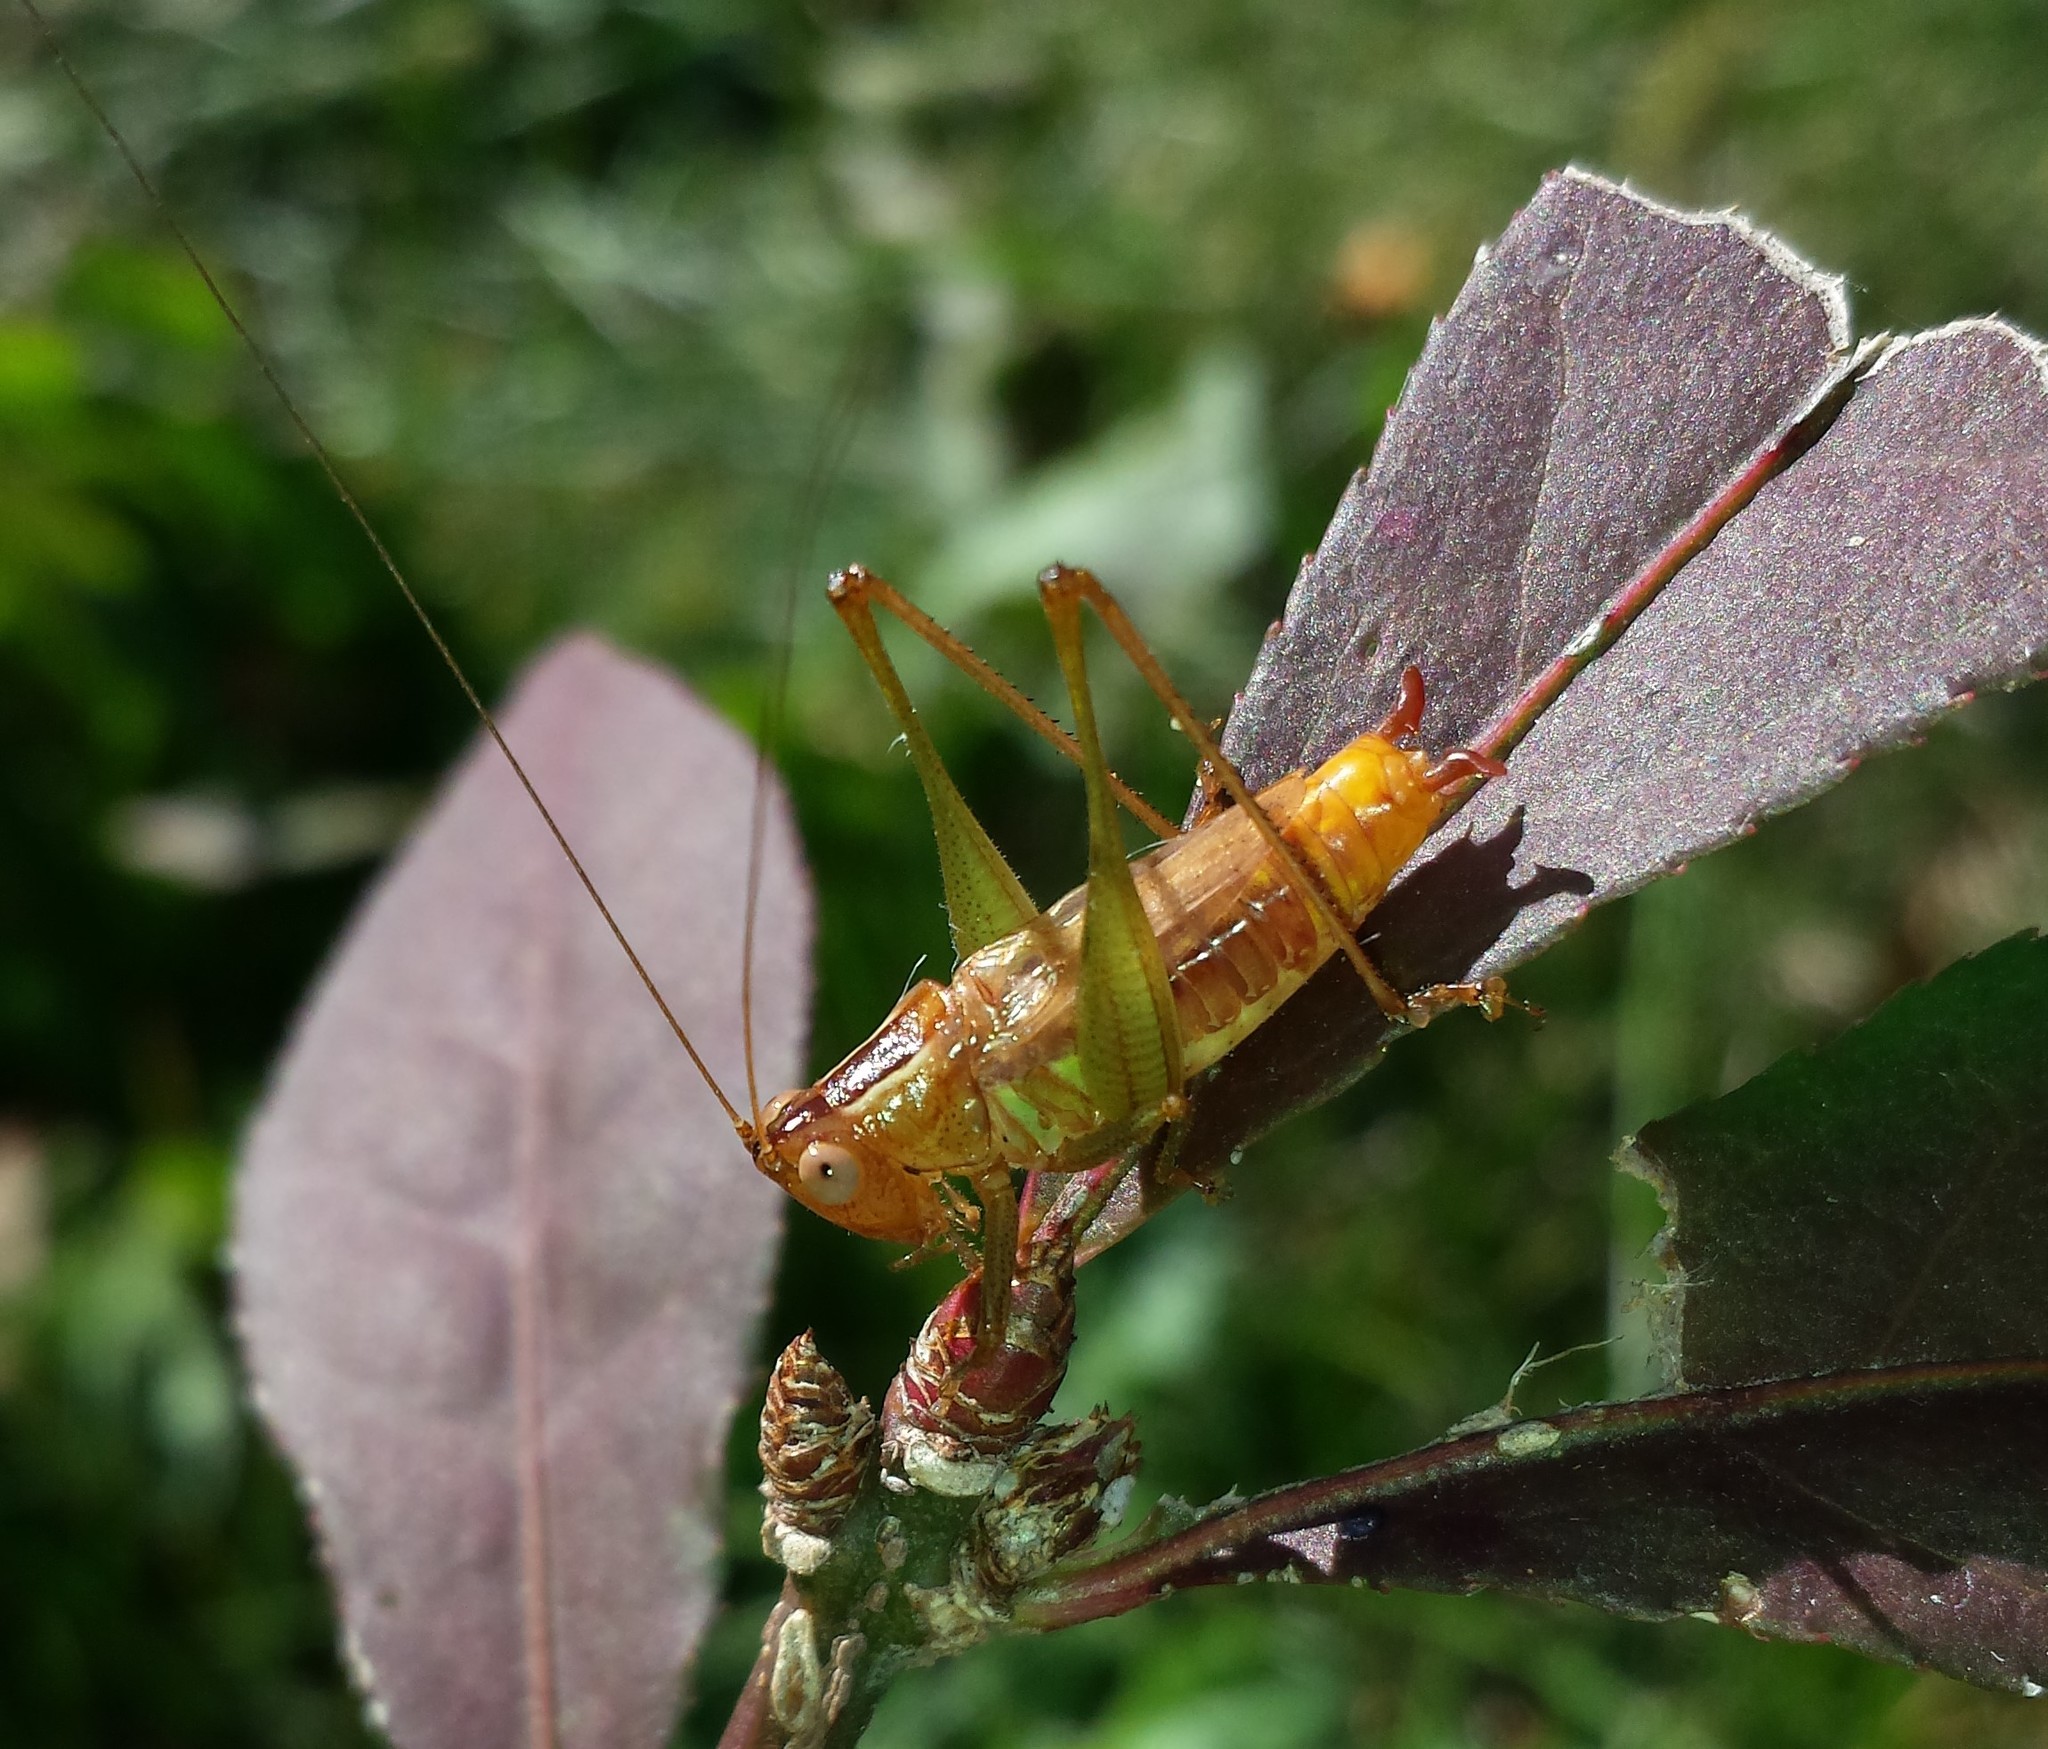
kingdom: Animalia
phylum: Arthropoda
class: Insecta
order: Orthoptera
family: Tettigoniidae
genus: Conocephalus
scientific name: Conocephalus brevipennis
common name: Short-winged meadow katydid
